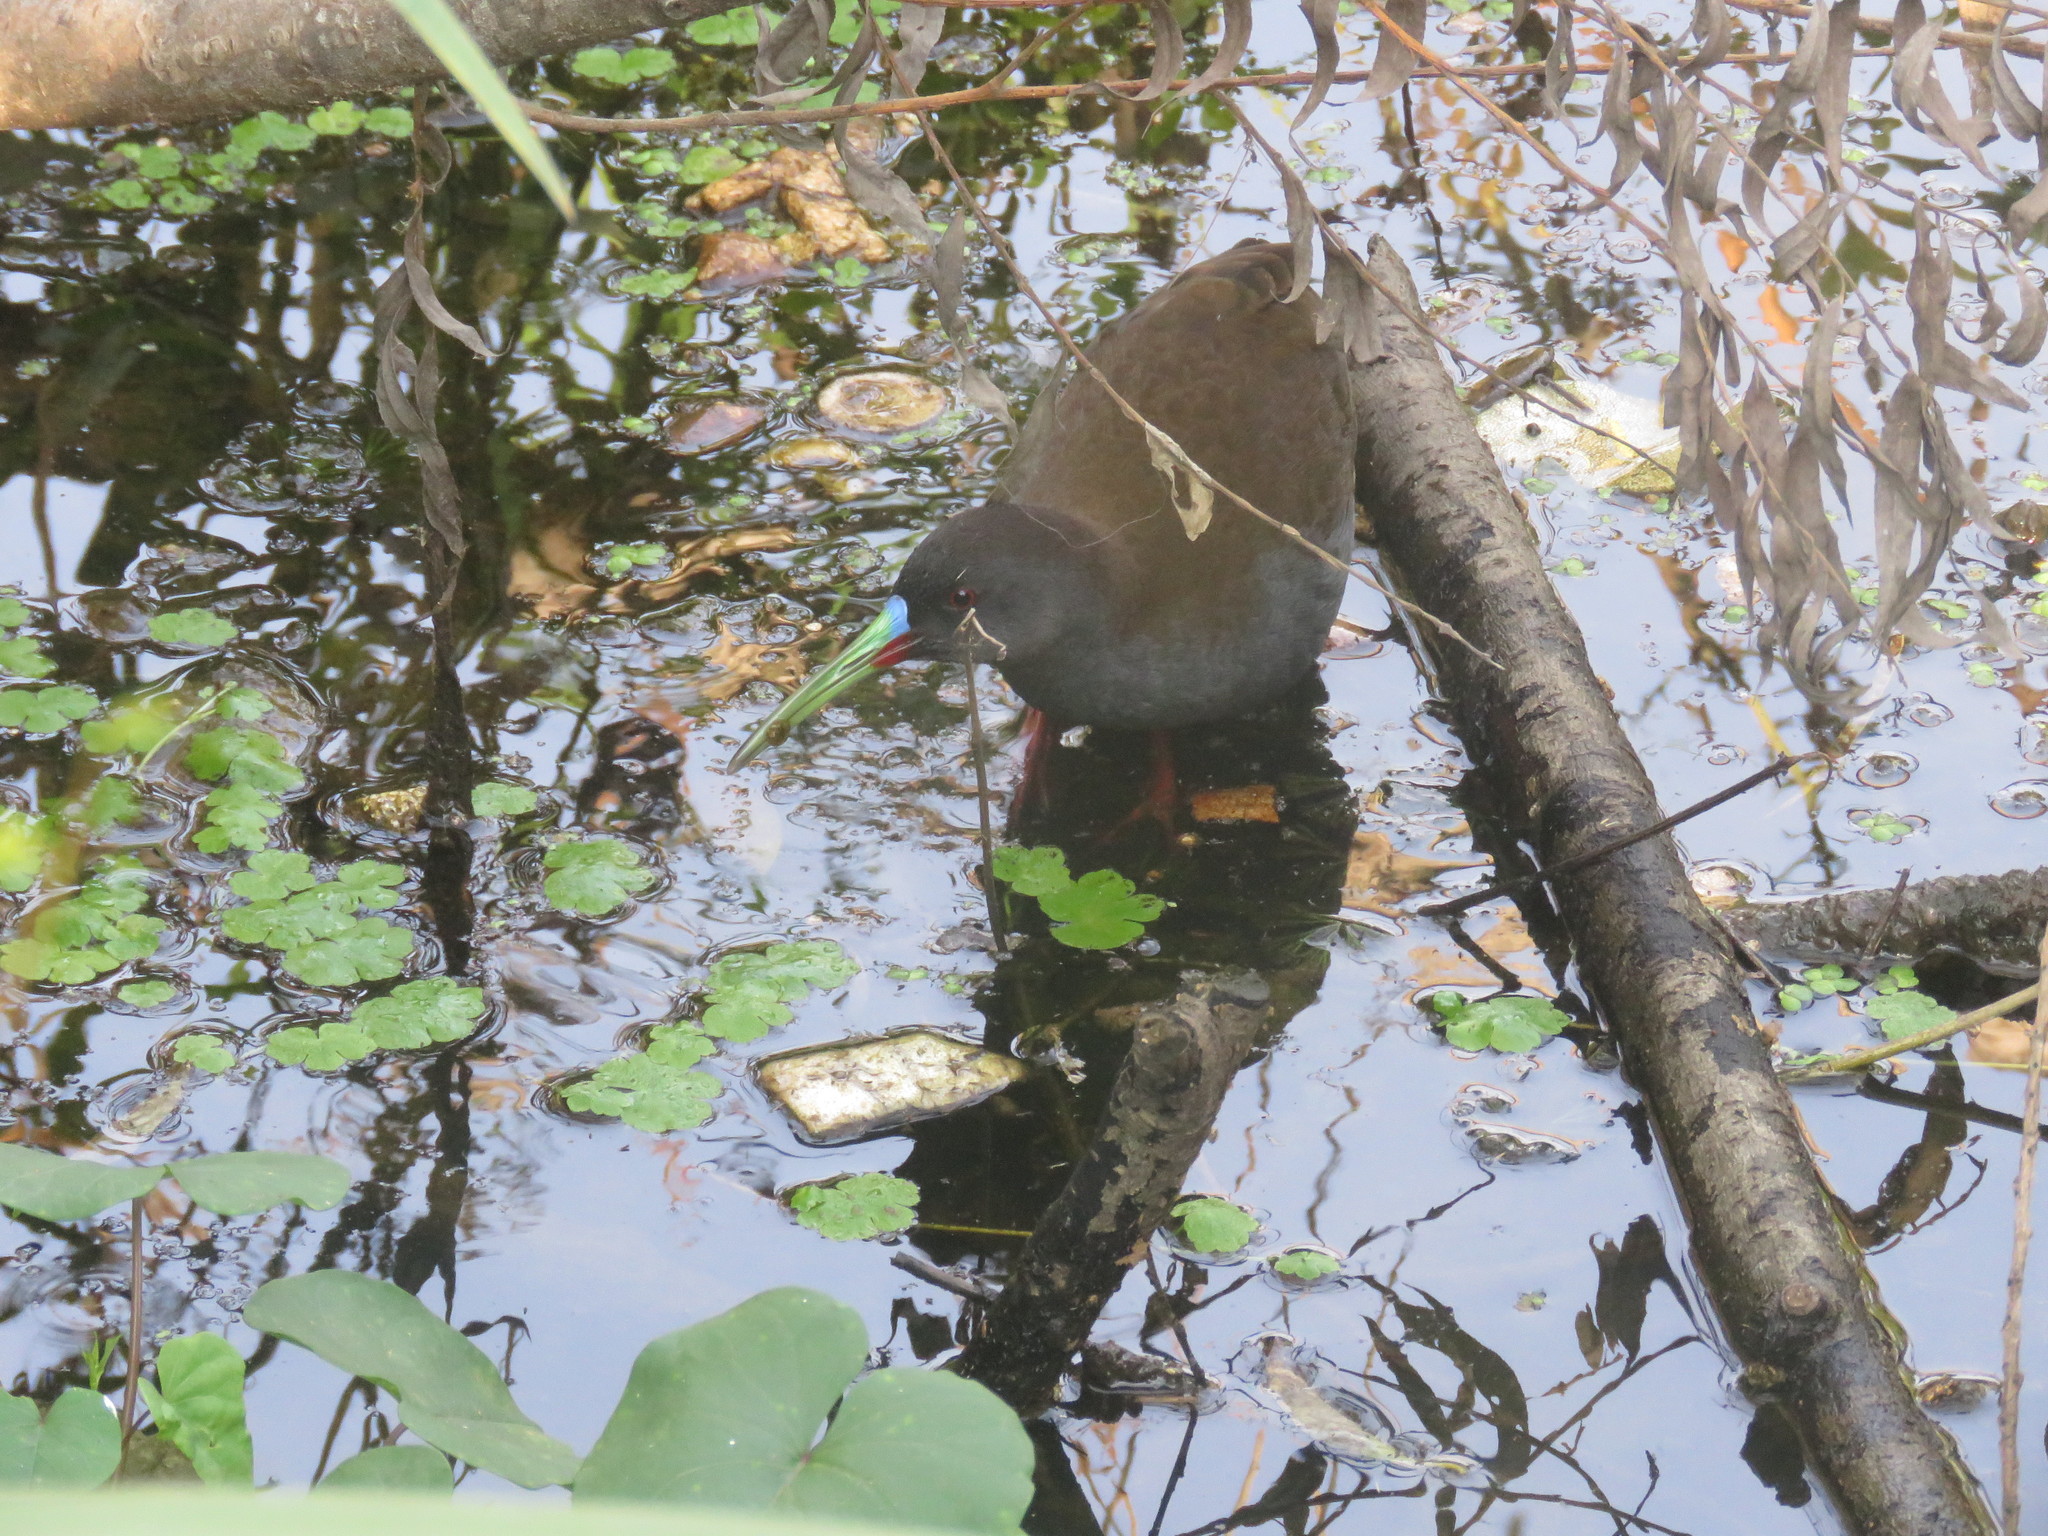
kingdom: Animalia
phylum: Chordata
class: Aves
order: Gruiformes
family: Rallidae
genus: Pardirallus
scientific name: Pardirallus sanguinolentus
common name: Plumbeous rail
